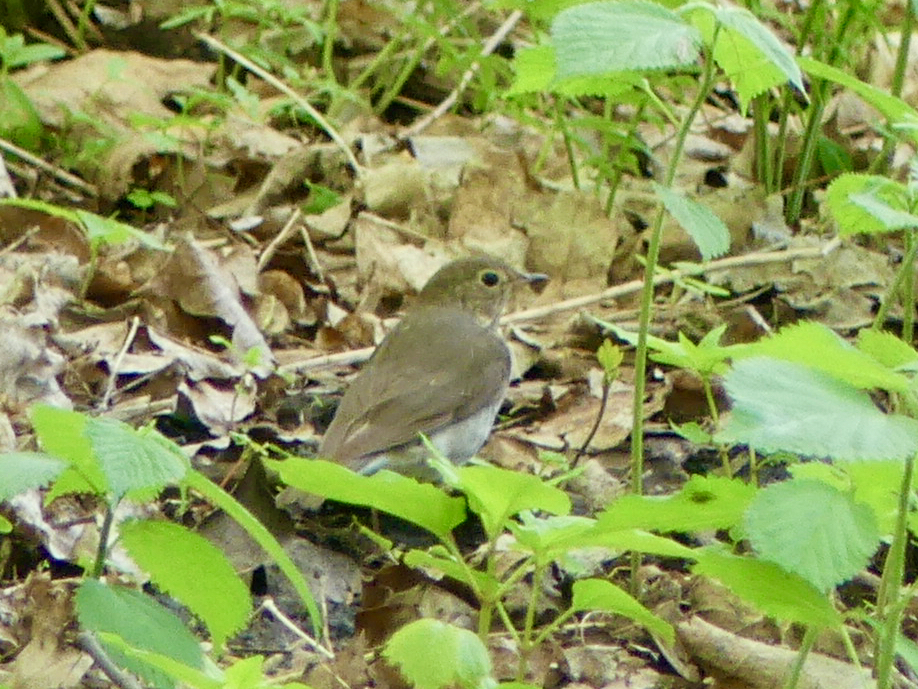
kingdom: Animalia
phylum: Chordata
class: Aves
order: Passeriformes
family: Turdidae
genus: Catharus
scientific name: Catharus ustulatus
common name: Swainson's thrush
